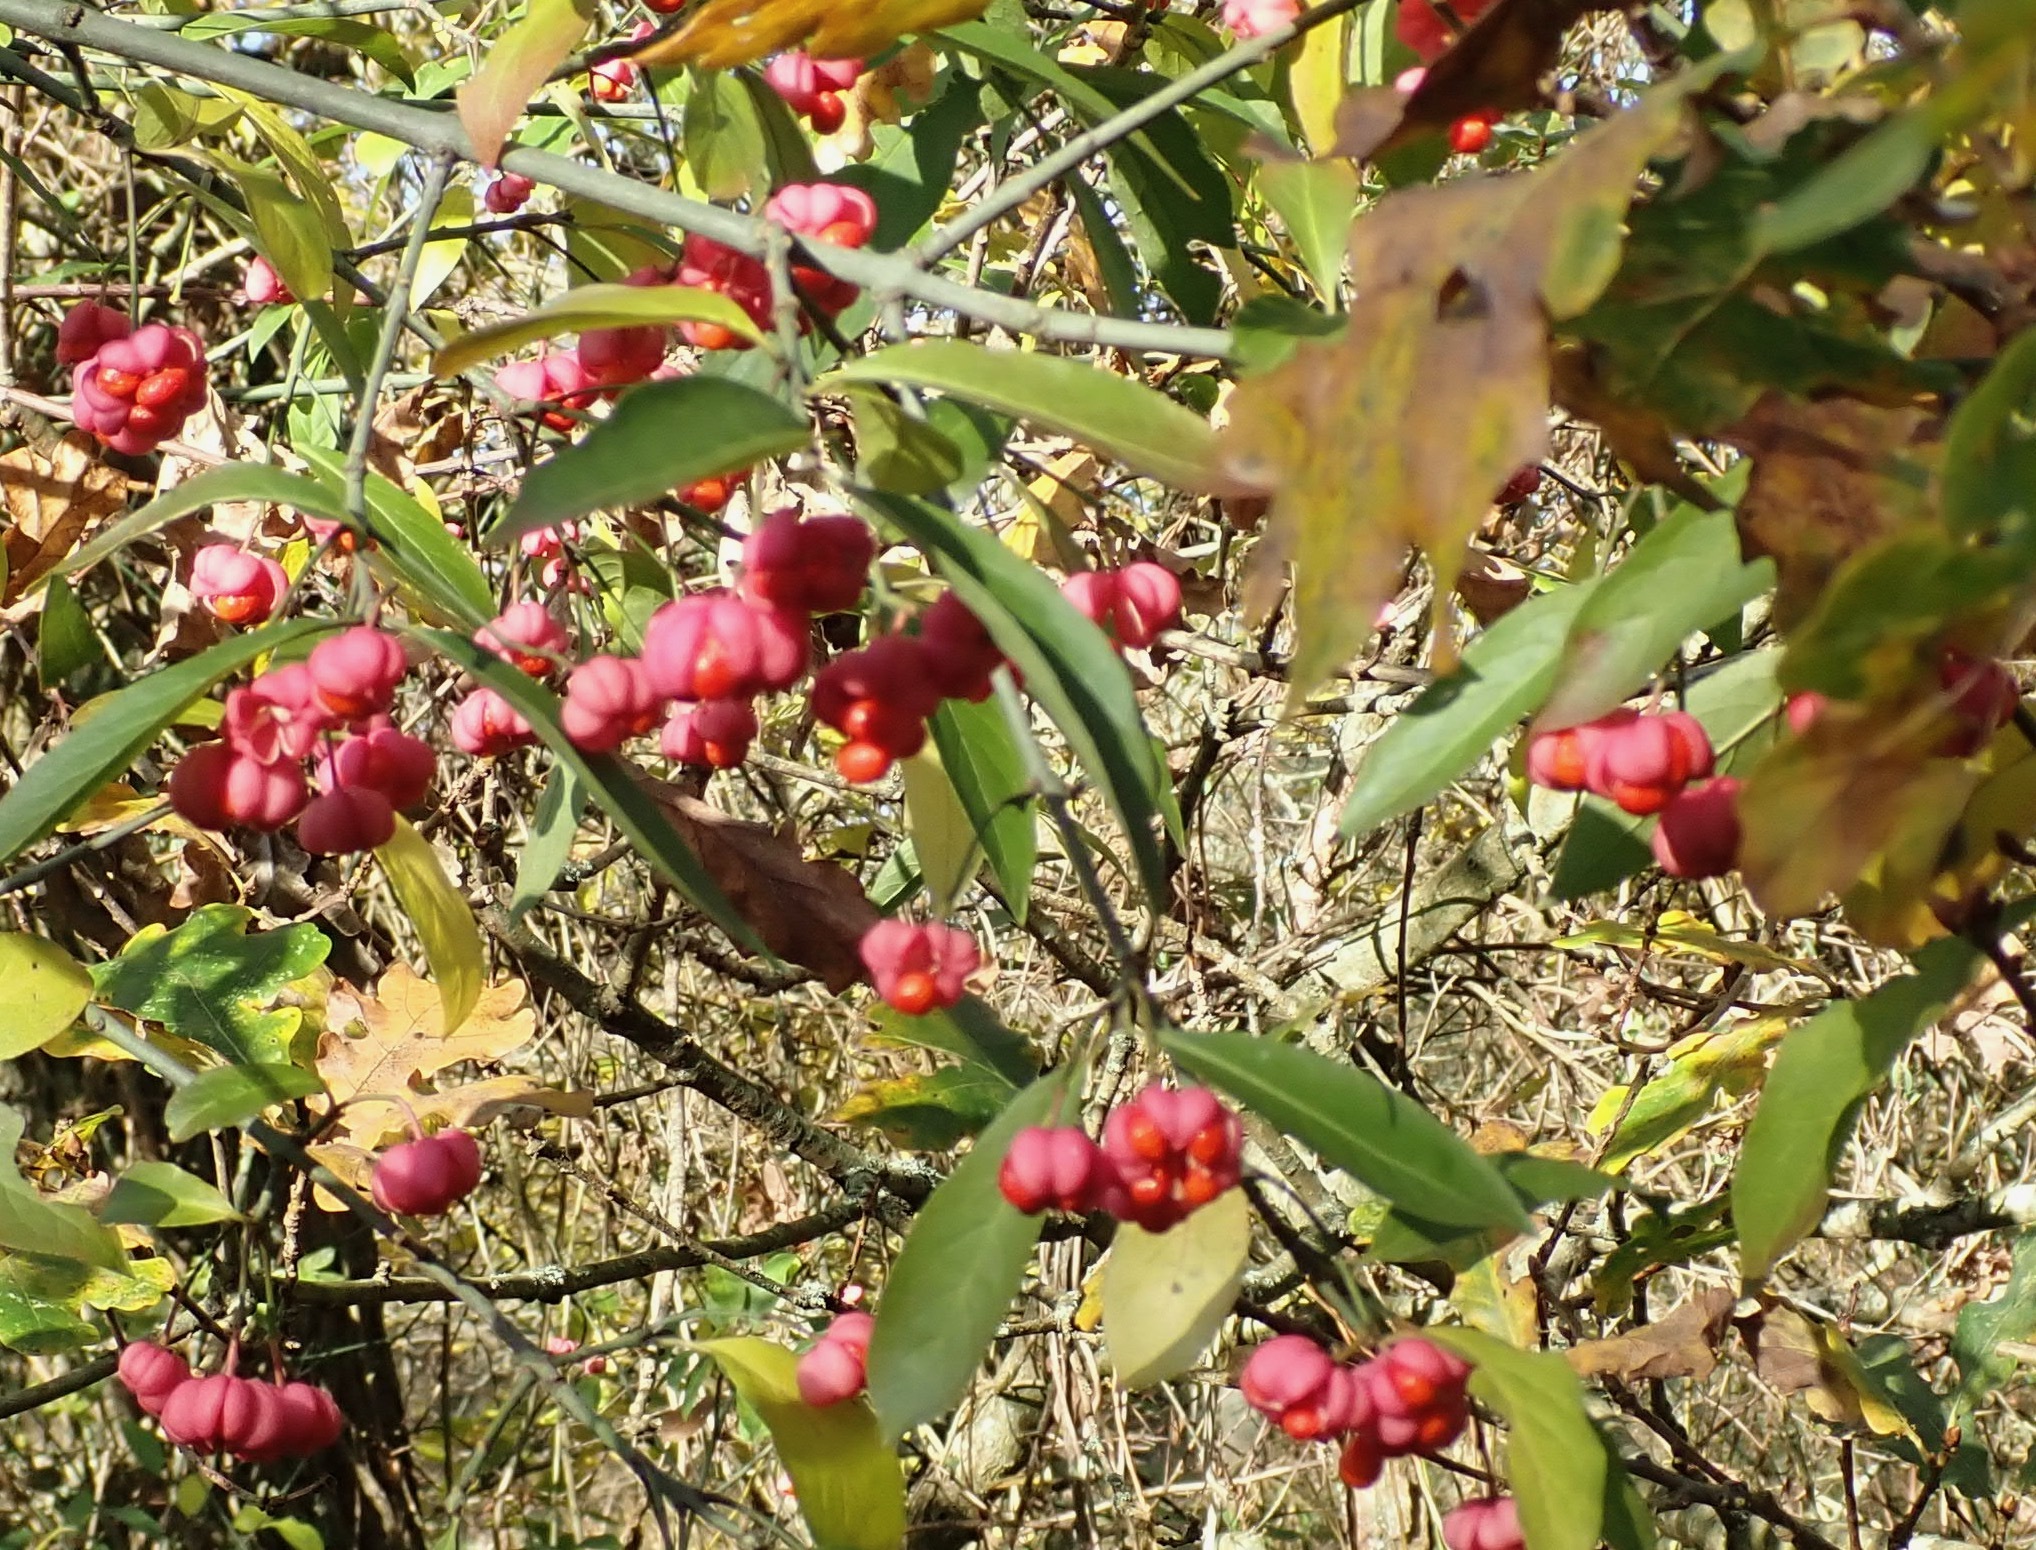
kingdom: Plantae
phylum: Tracheophyta
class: Magnoliopsida
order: Celastrales
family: Celastraceae
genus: Euonymus
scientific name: Euonymus europaeus
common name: Spindle
